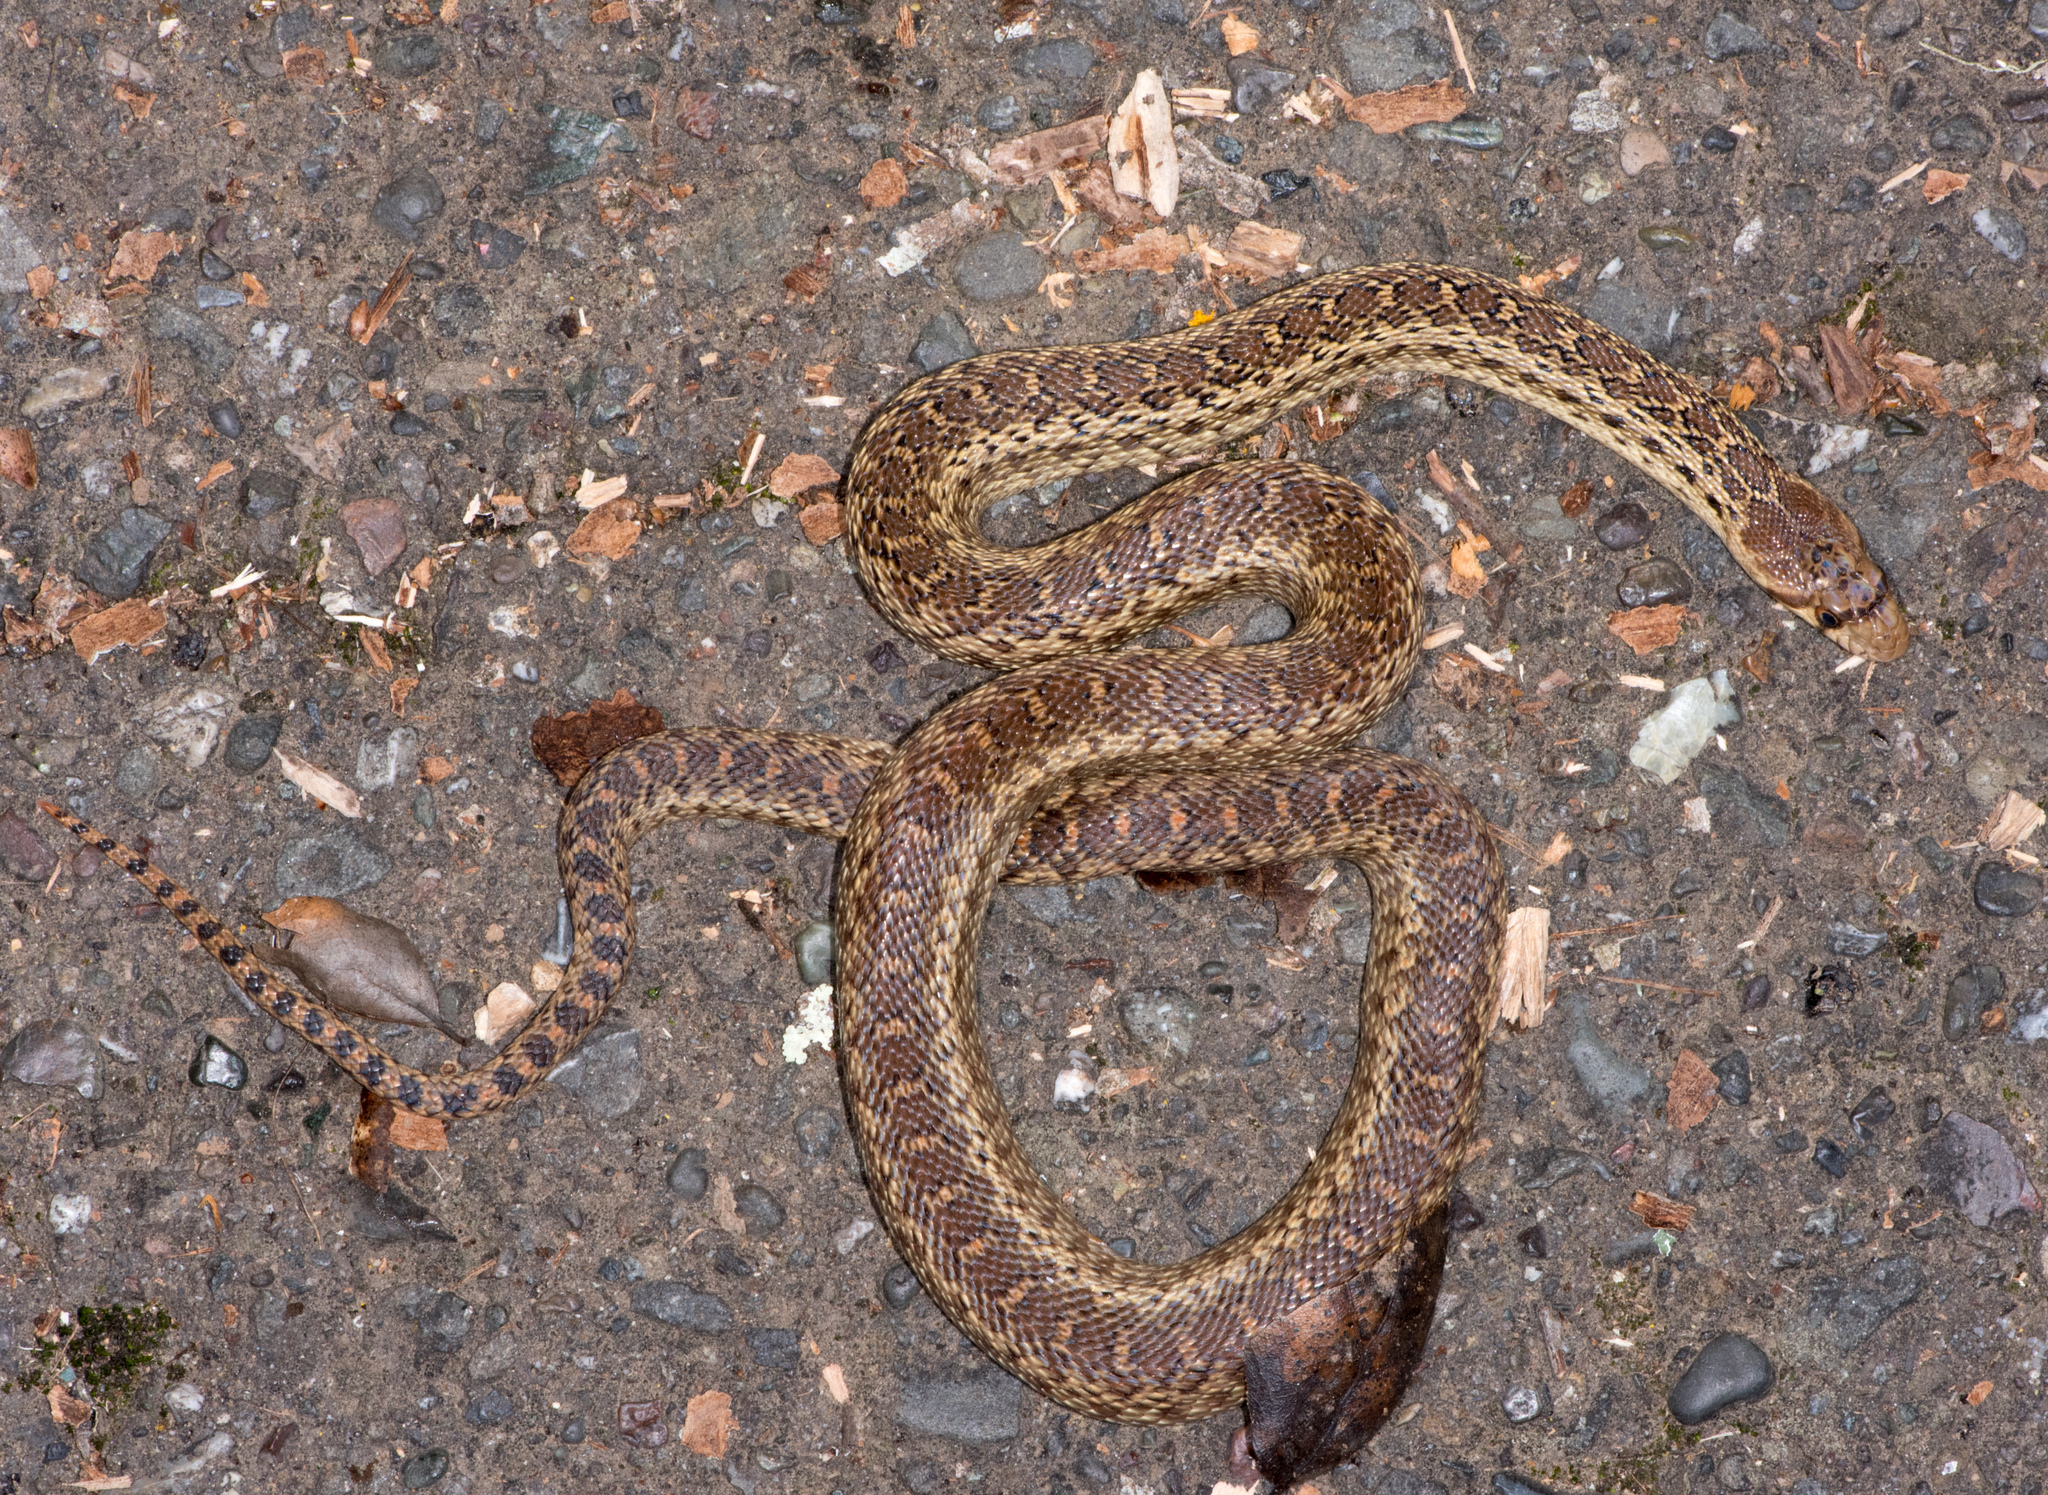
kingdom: Animalia
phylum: Chordata
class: Squamata
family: Colubridae
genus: Pituophis
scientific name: Pituophis catenifer
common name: Gopher snake
